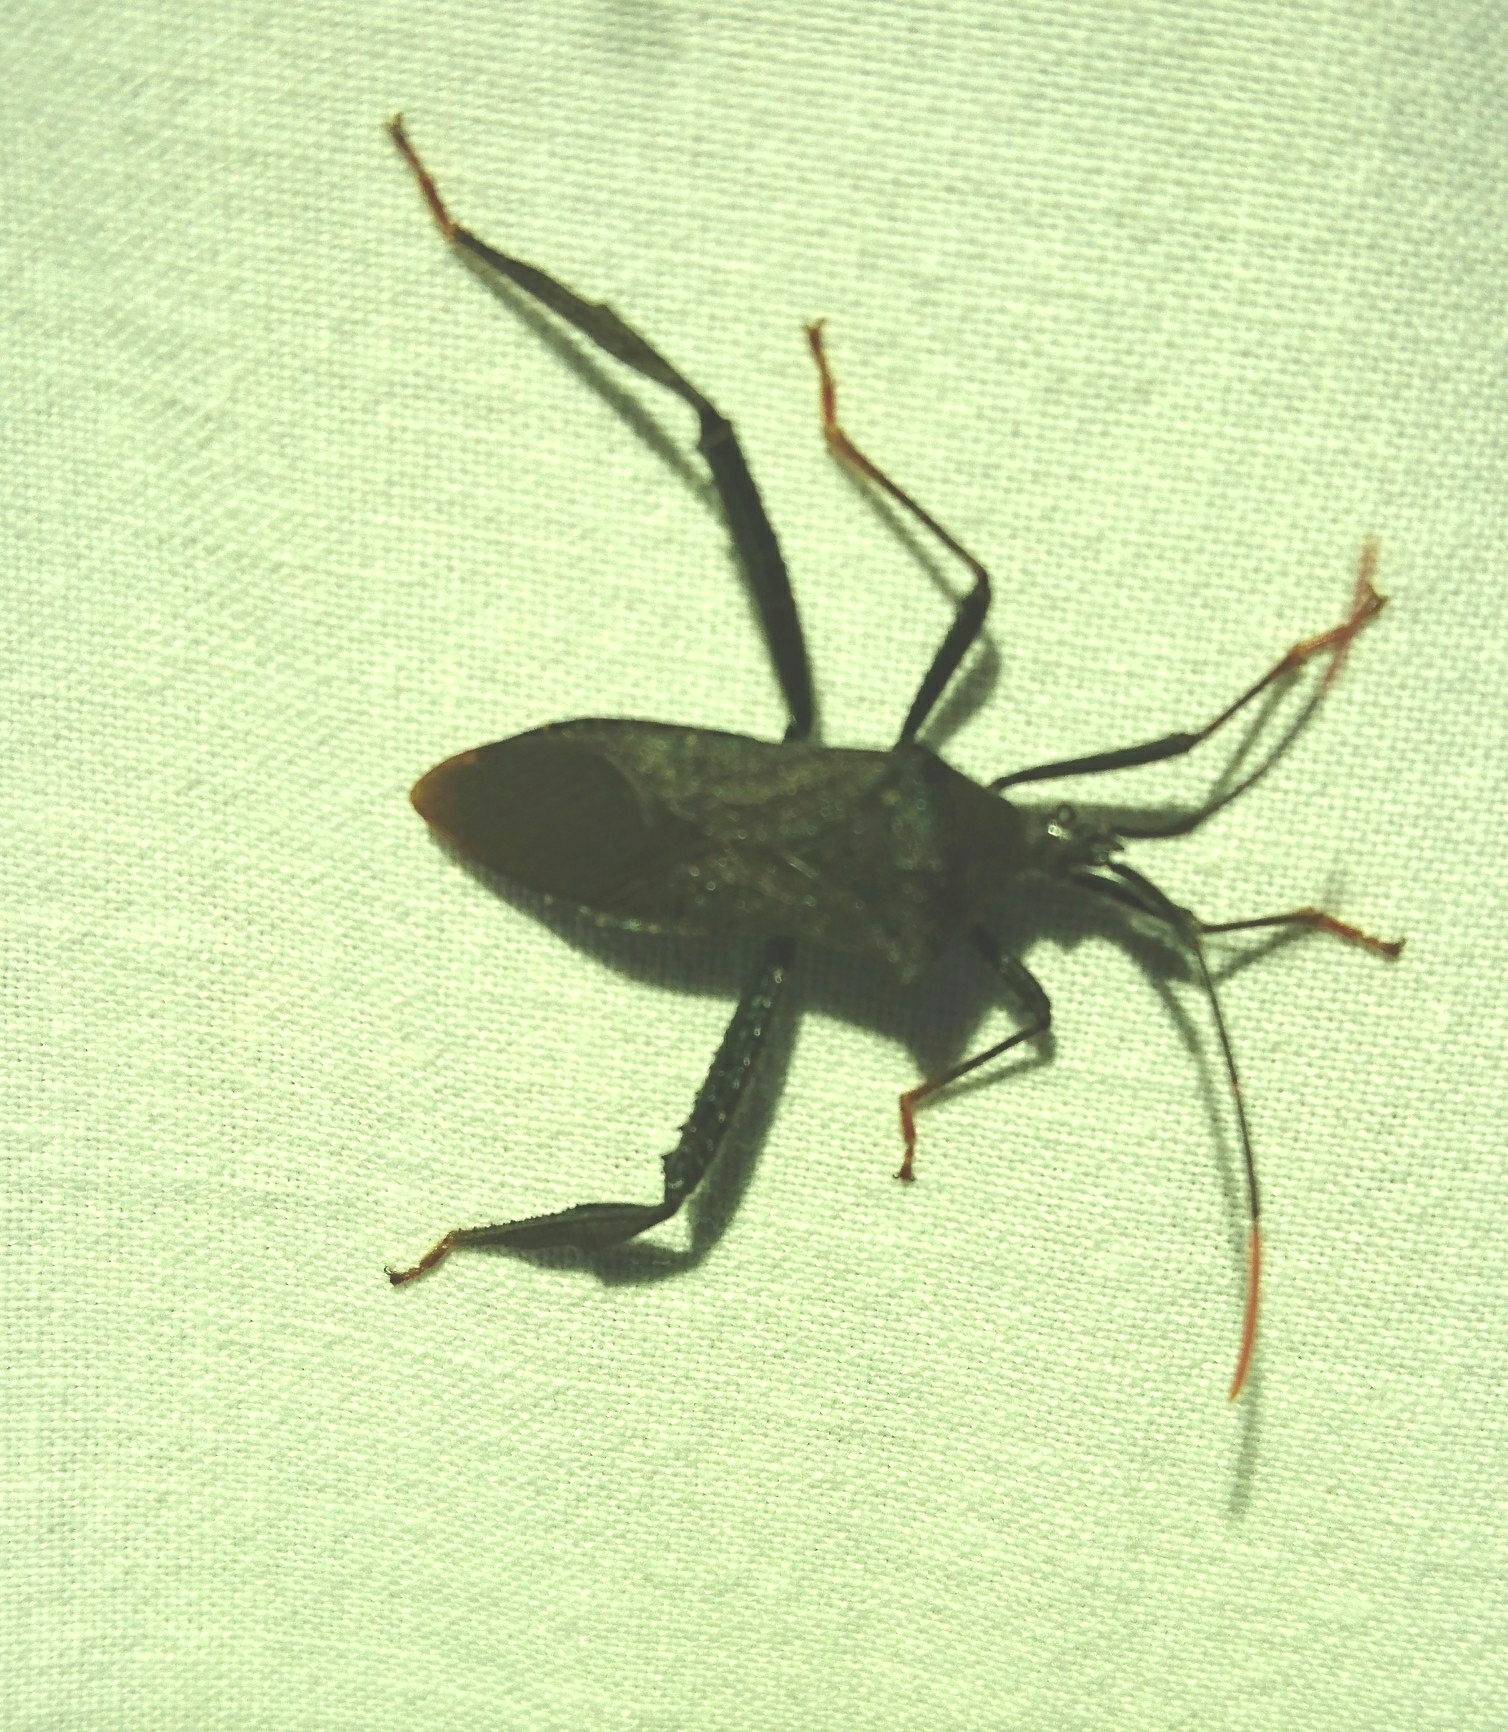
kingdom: Animalia
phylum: Arthropoda
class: Insecta
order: Hemiptera
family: Coreidae
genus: Acanthocephala
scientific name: Acanthocephala terminalis
